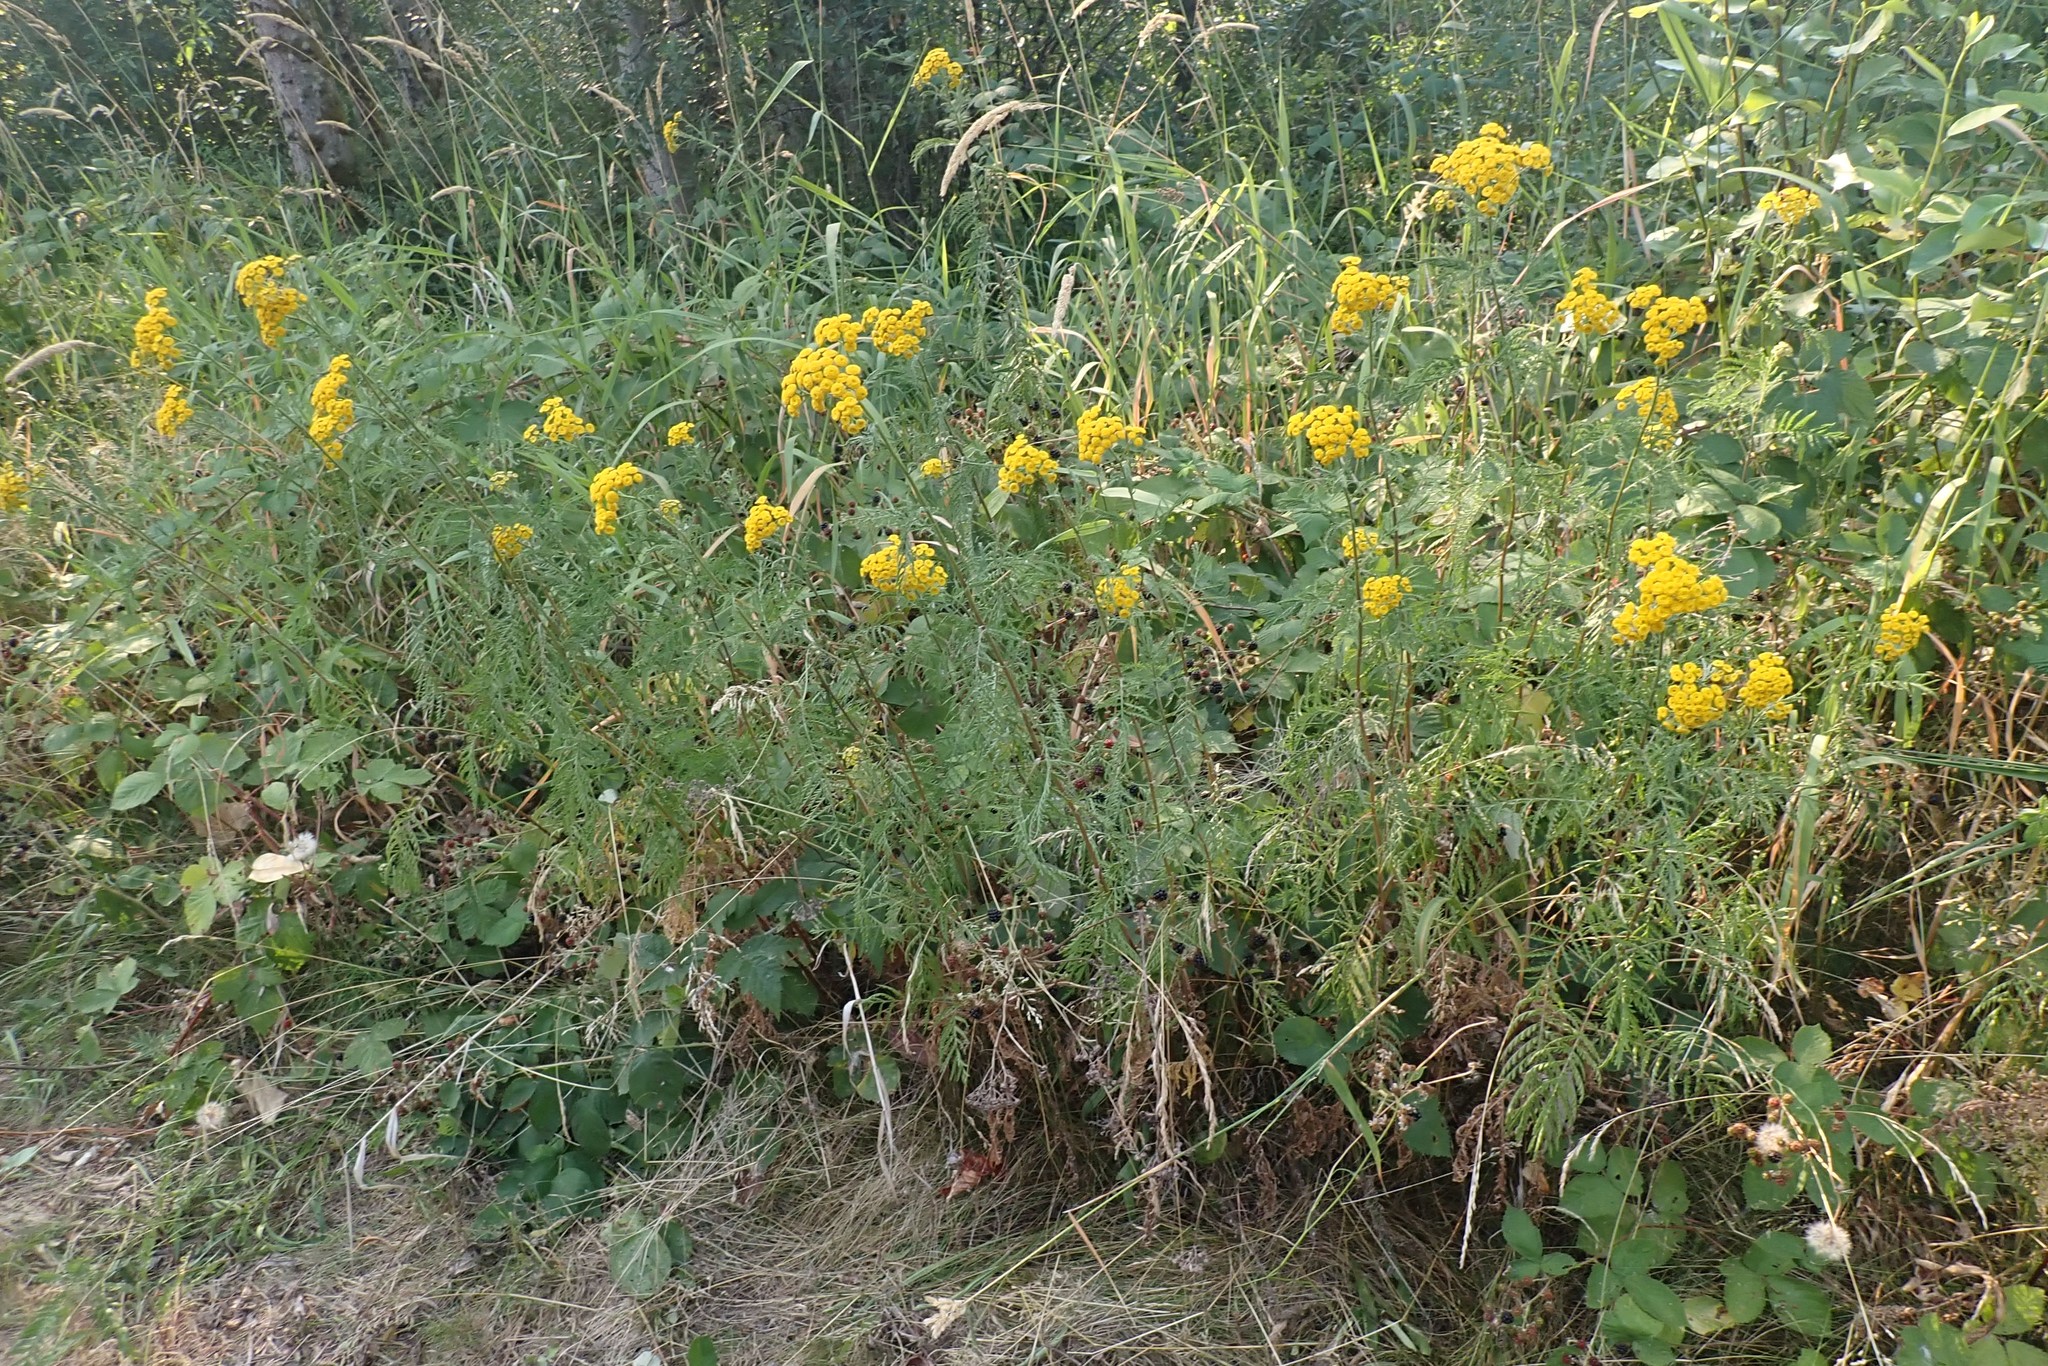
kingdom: Plantae
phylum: Tracheophyta
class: Magnoliopsida
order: Asterales
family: Asteraceae
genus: Tanacetum
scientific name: Tanacetum vulgare
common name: Common tansy
